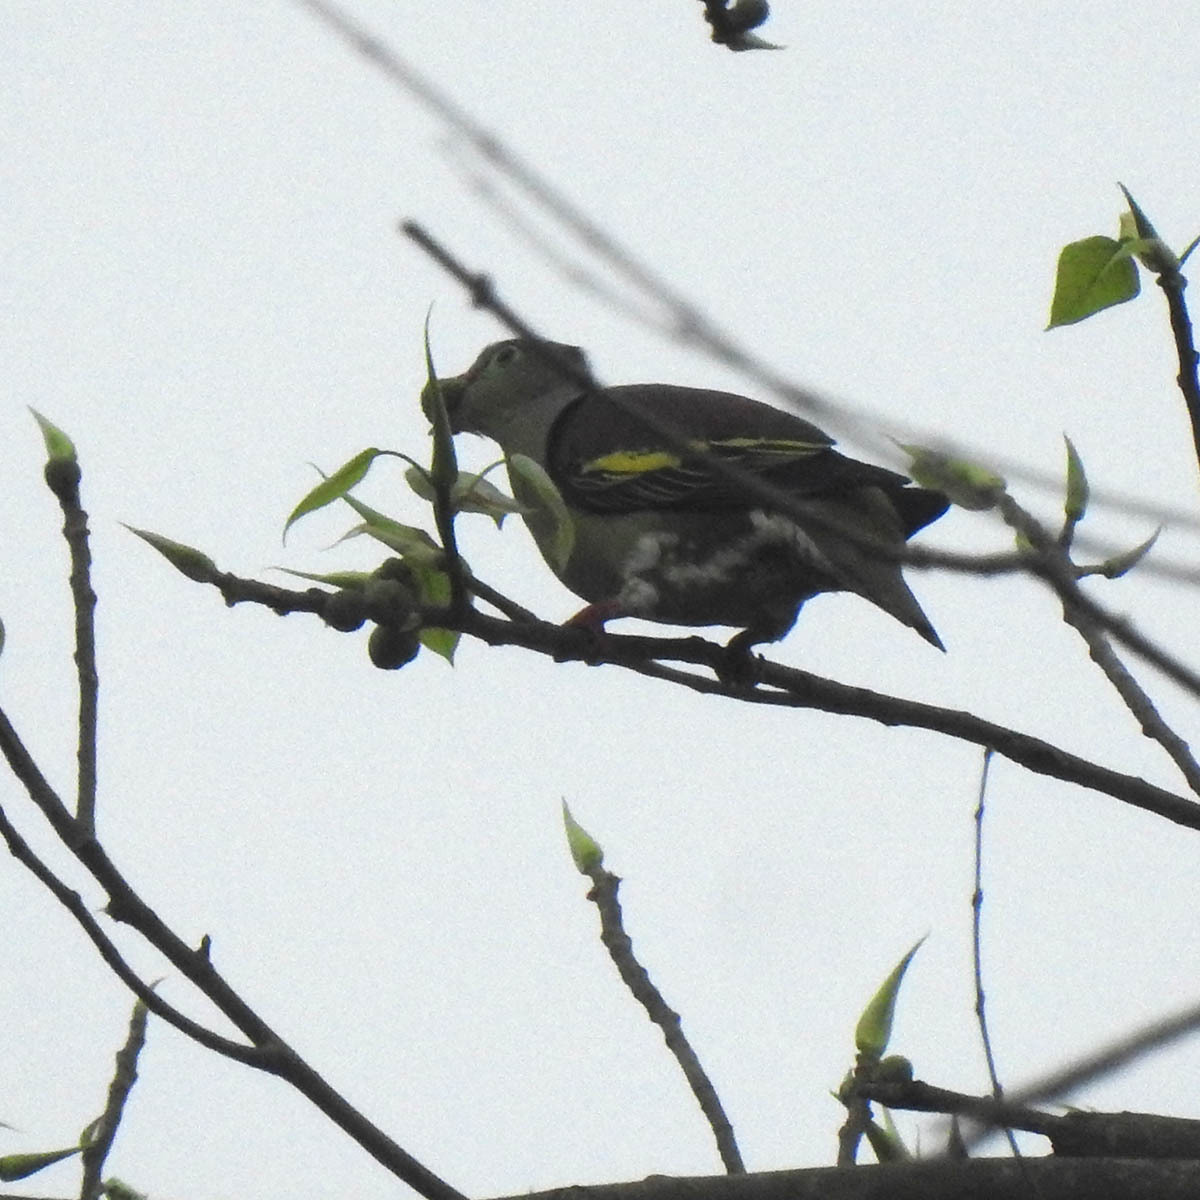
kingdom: Animalia
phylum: Chordata
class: Aves
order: Columbiformes
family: Columbidae
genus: Treron
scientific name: Treron curvirostra
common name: Thick-billed green pigeon
